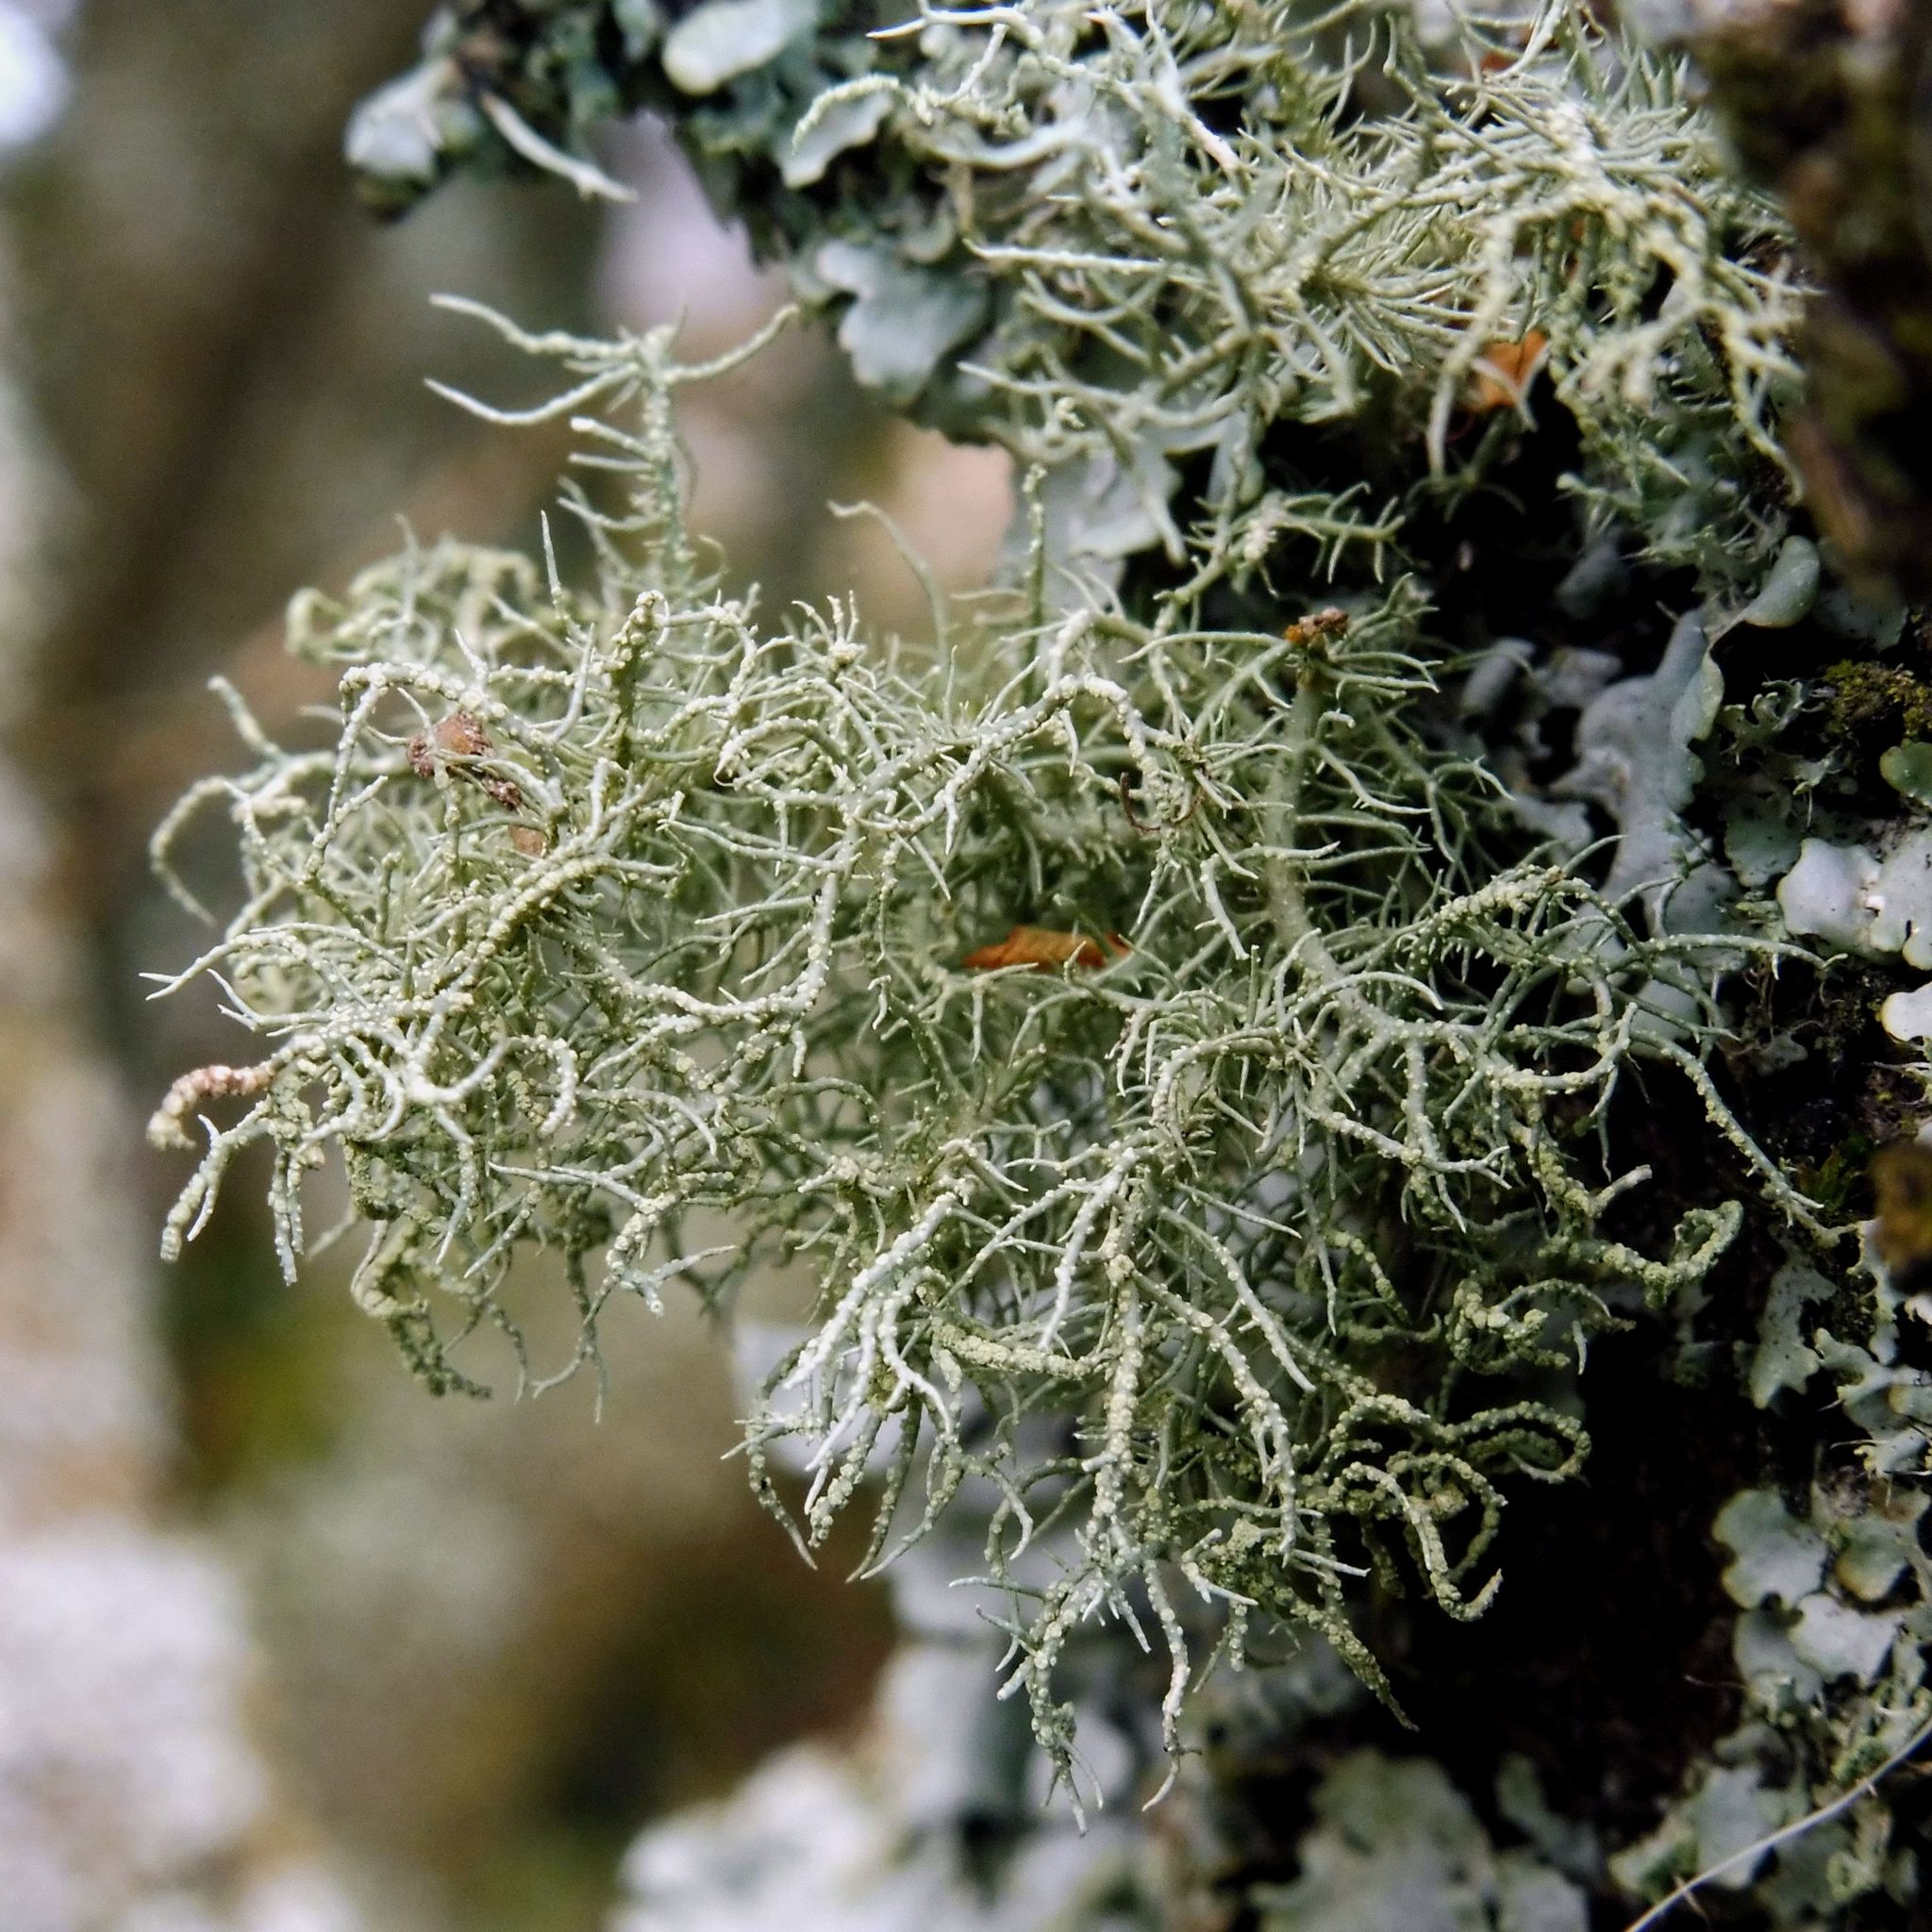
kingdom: Fungi
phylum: Ascomycota
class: Lecanoromycetes
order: Lecanorales
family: Parmeliaceae
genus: Usnea
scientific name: Usnea
